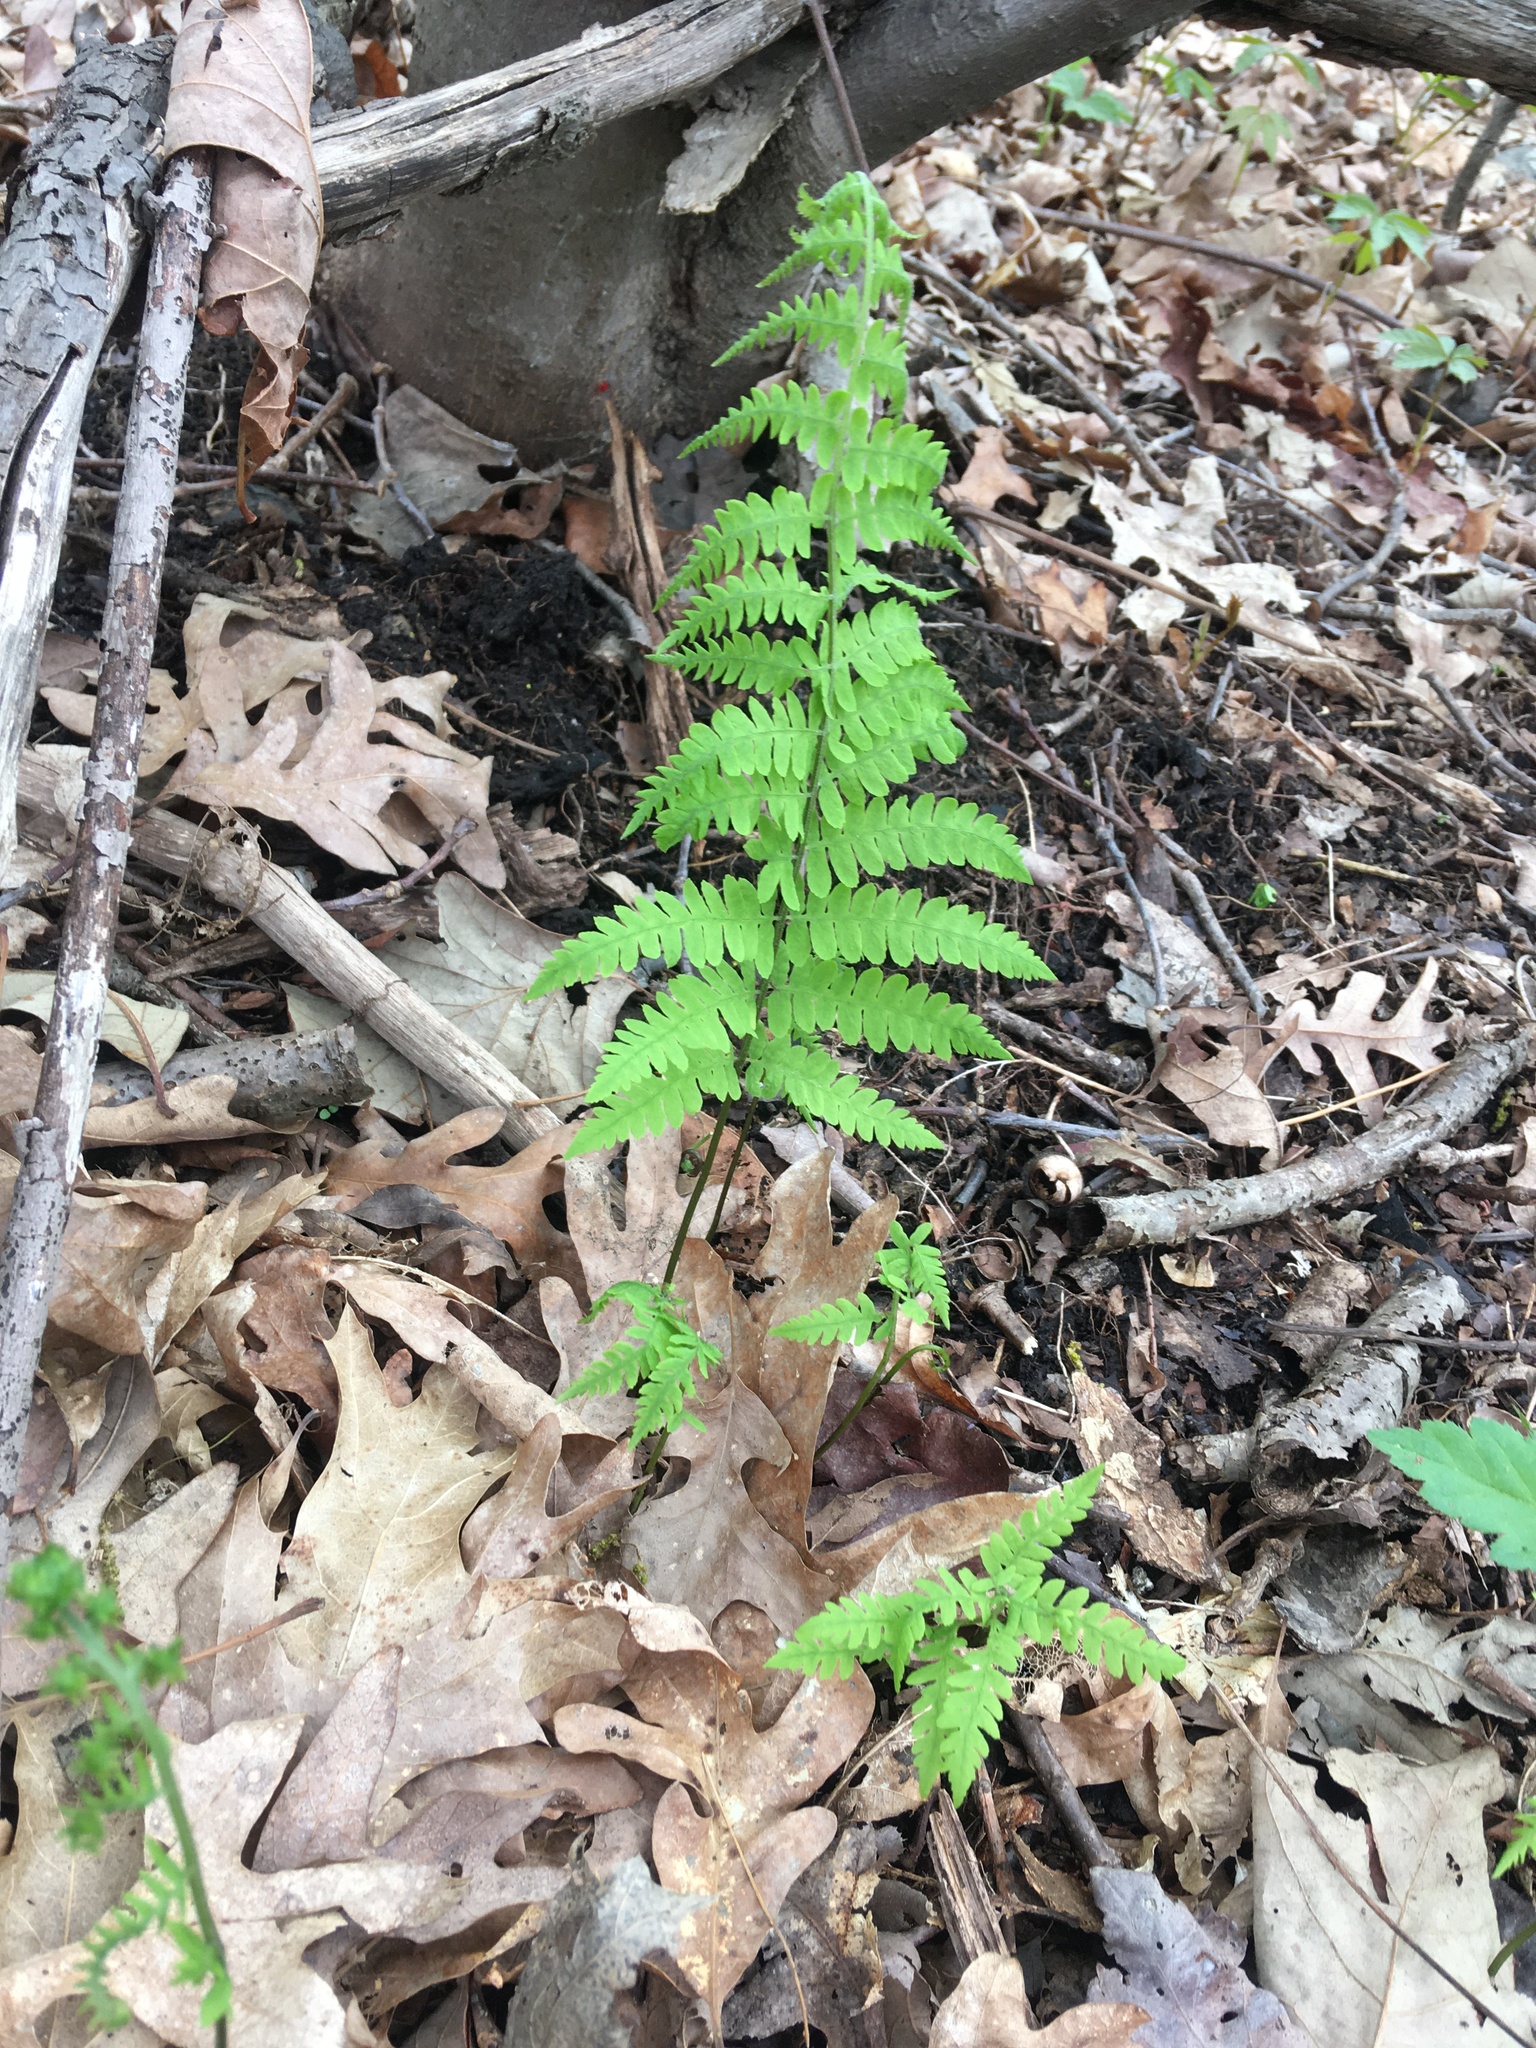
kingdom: Plantae
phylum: Tracheophyta
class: Polypodiopsida
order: Polypodiales
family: Thelypteridaceae
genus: Thelypteris
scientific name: Thelypteris palustris
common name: Marsh fern
